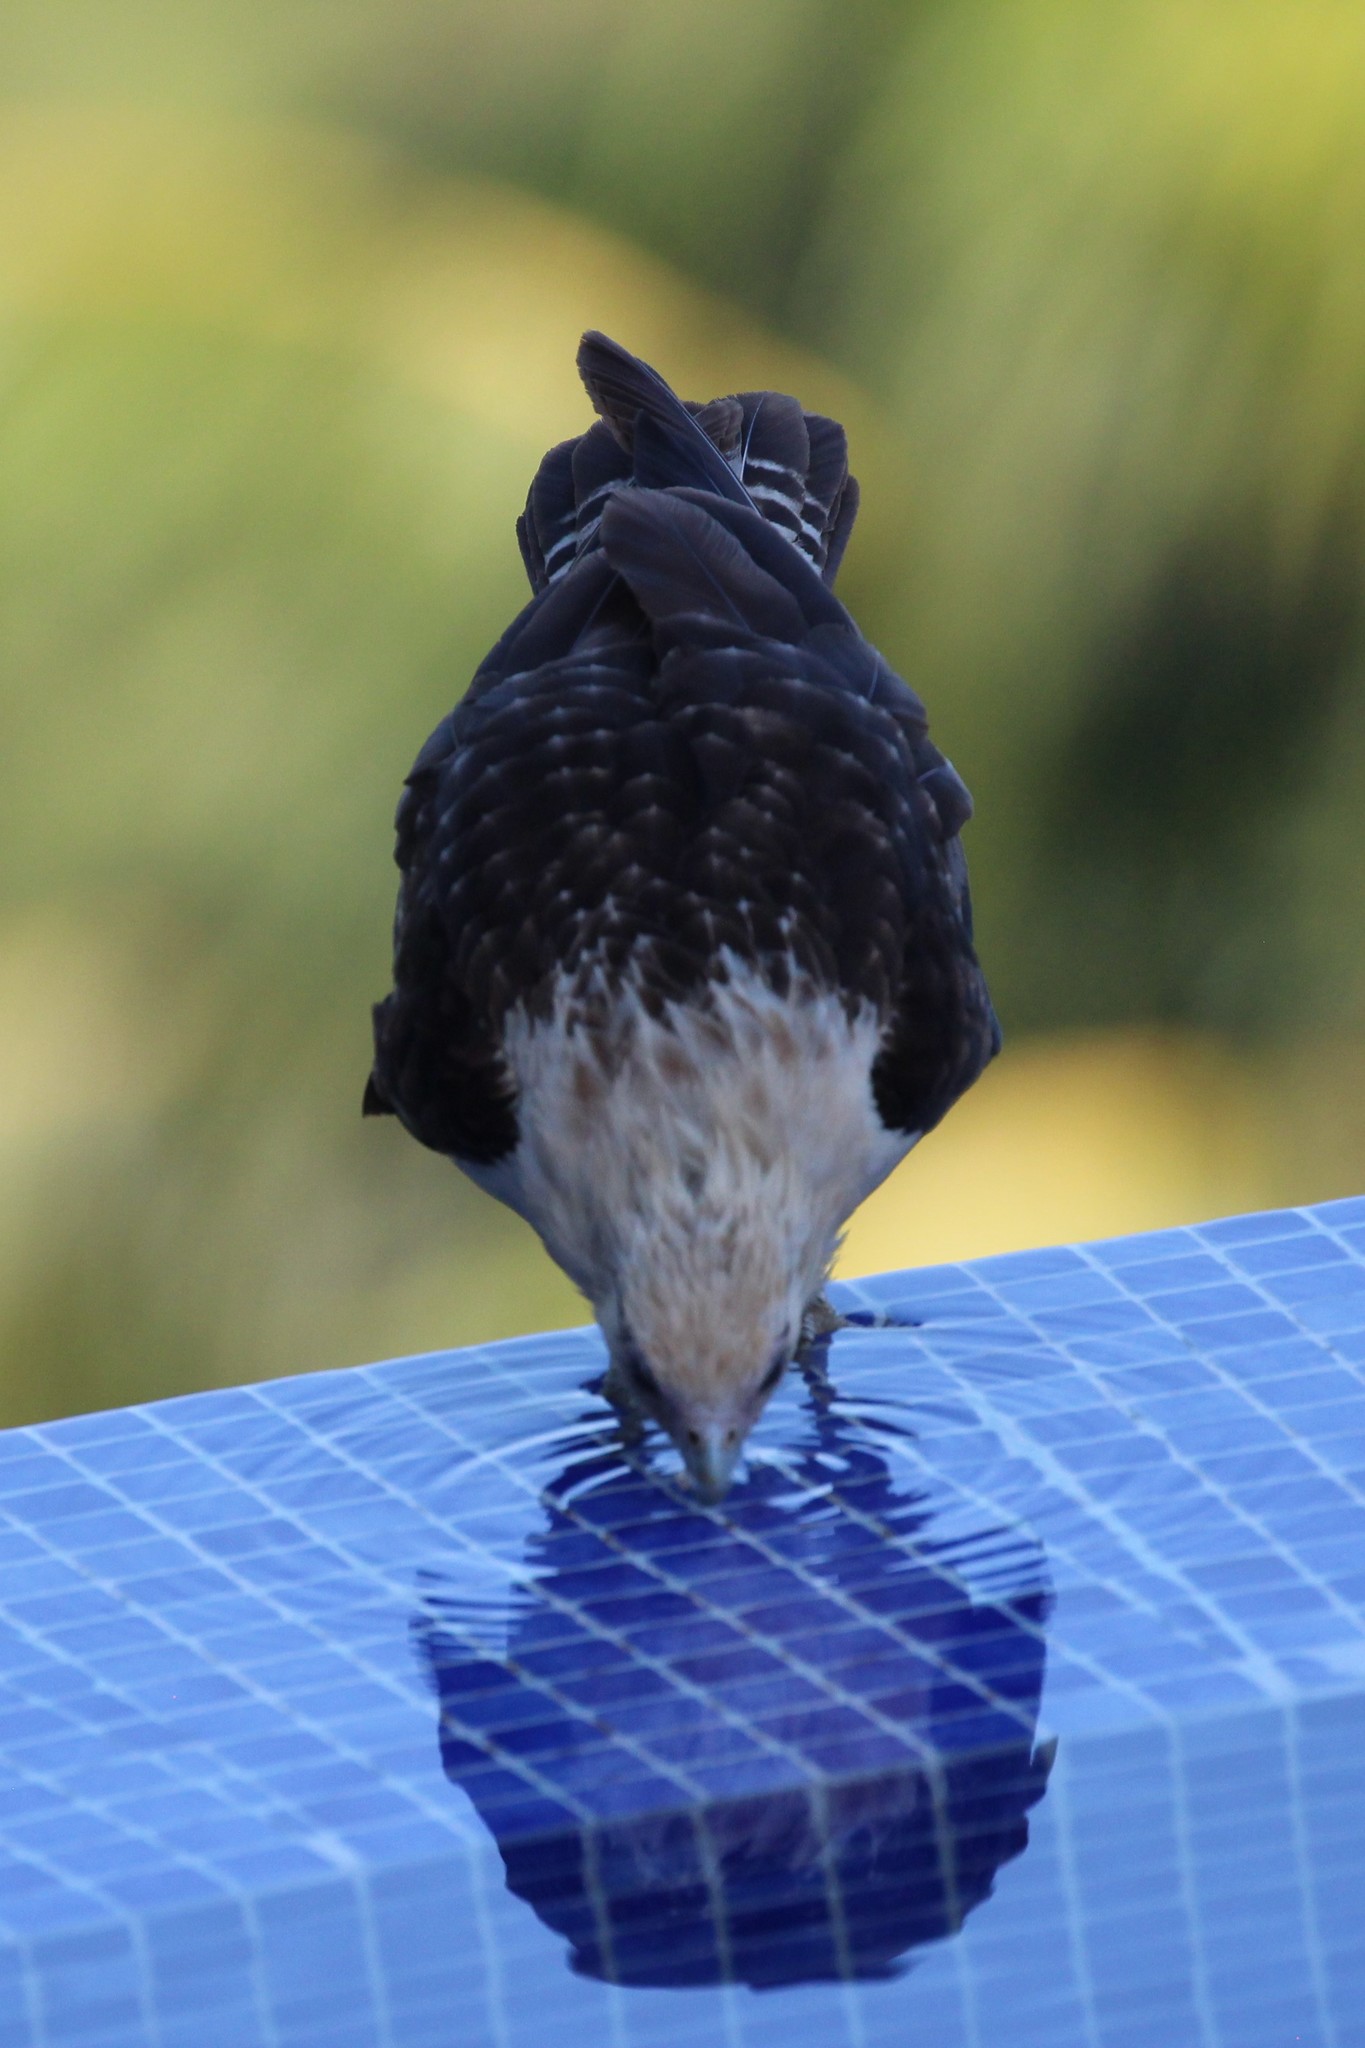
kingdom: Animalia
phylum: Chordata
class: Aves
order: Falconiformes
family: Falconidae
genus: Daptrius
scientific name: Daptrius
